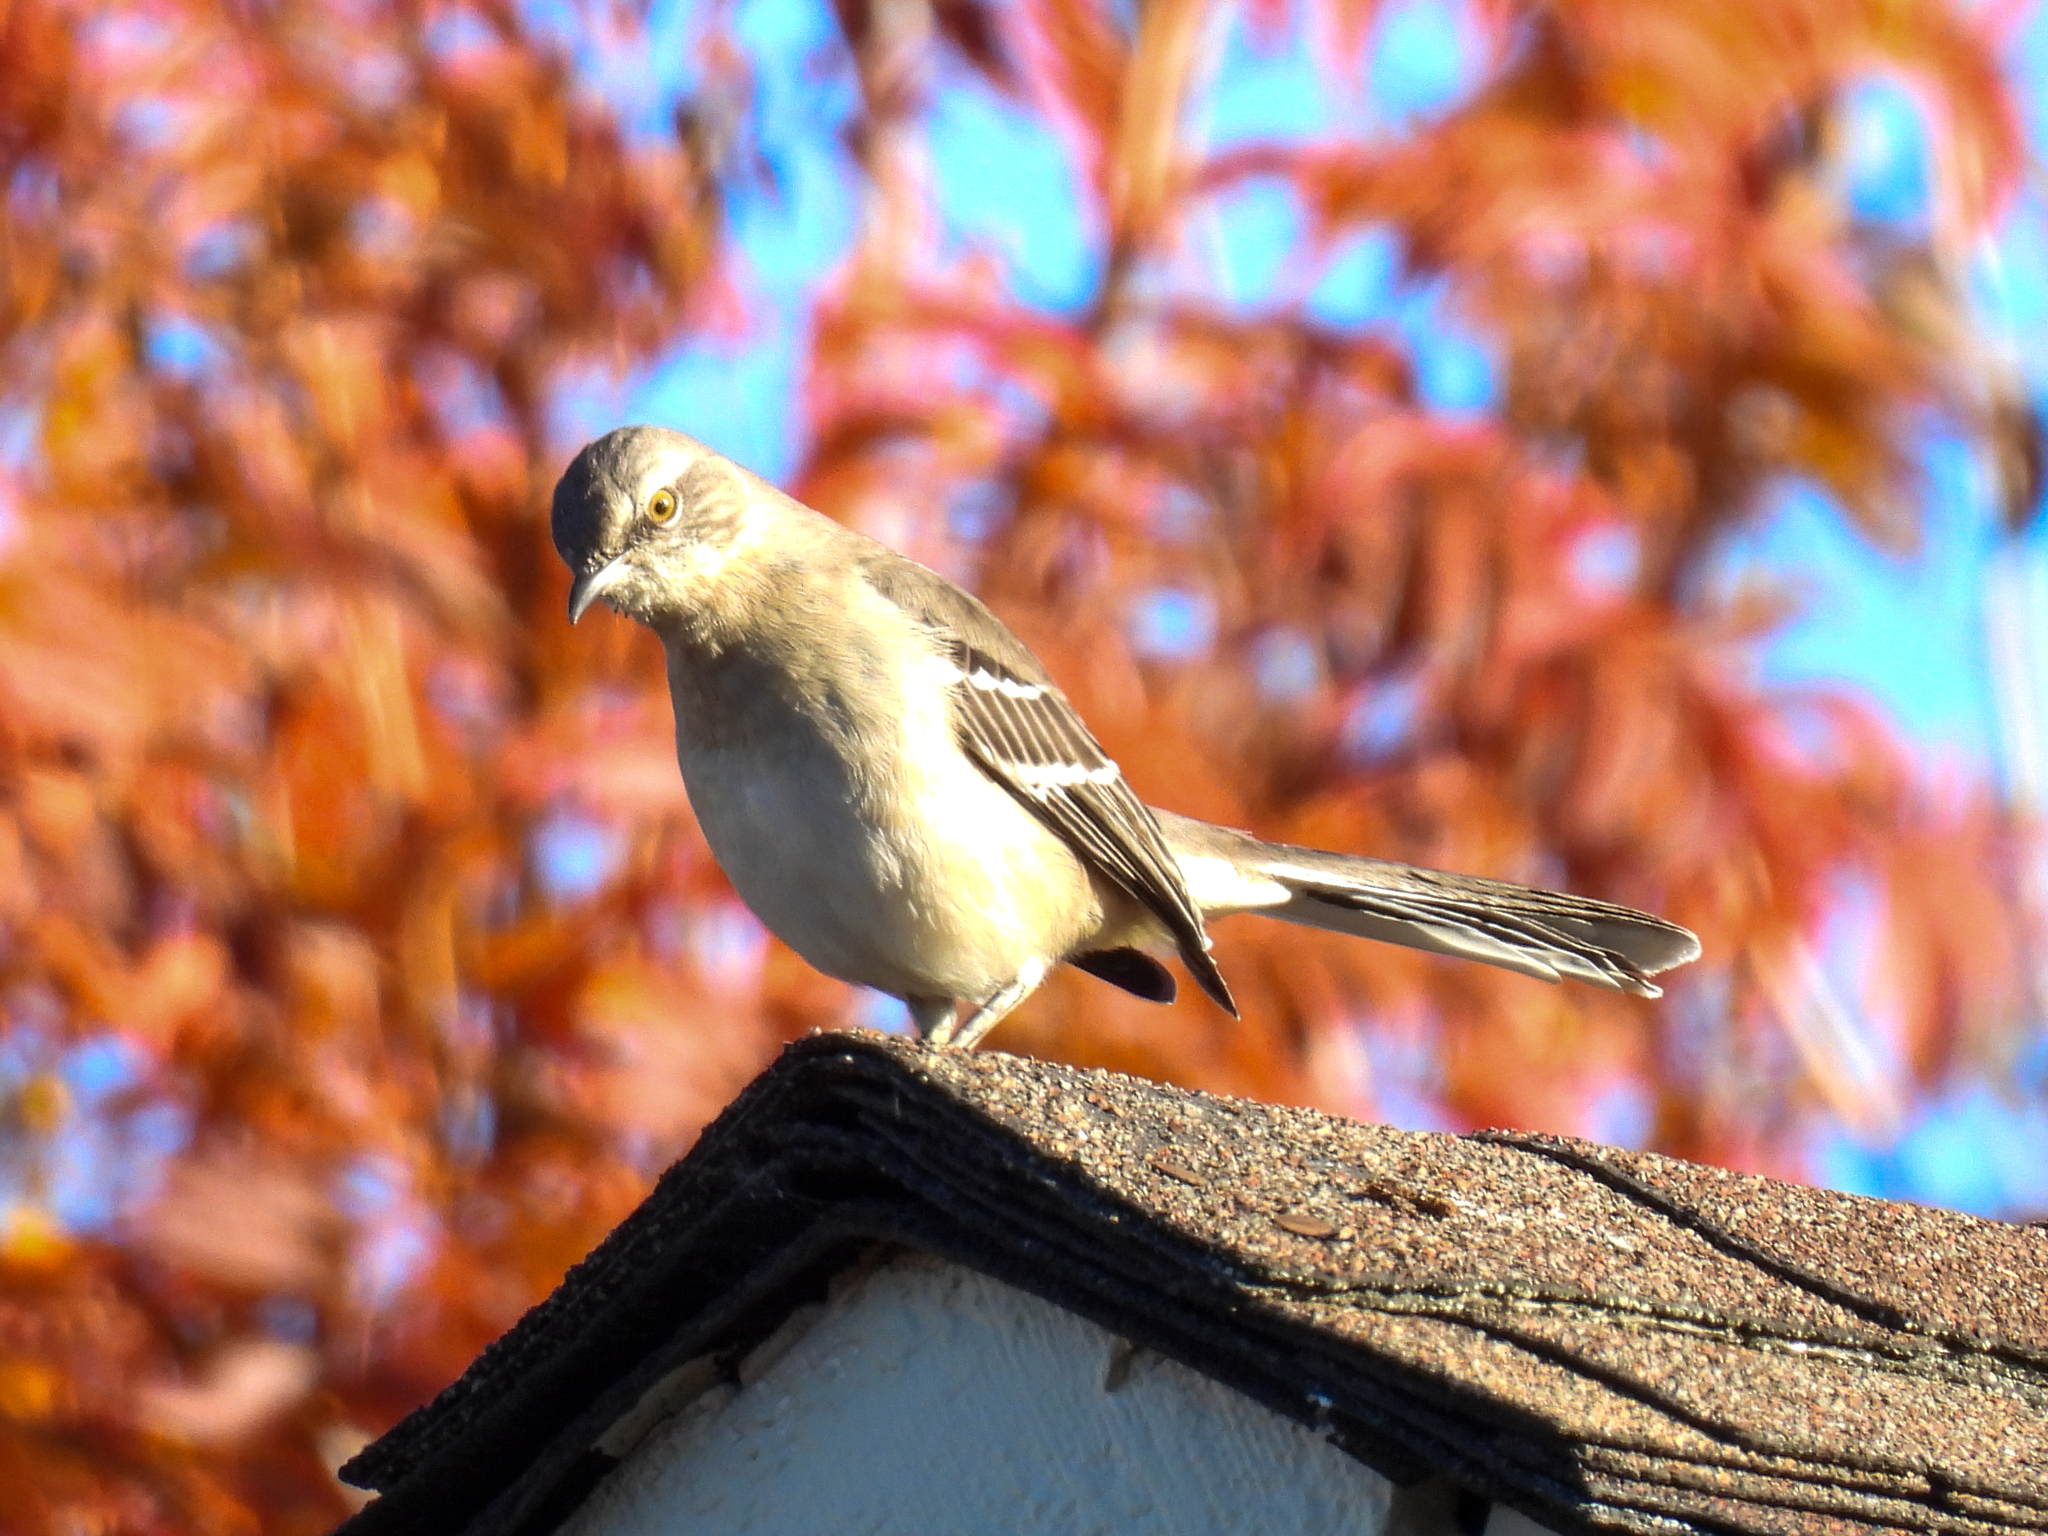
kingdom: Animalia
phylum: Chordata
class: Aves
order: Passeriformes
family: Mimidae
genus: Mimus
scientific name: Mimus polyglottos
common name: Northern mockingbird
